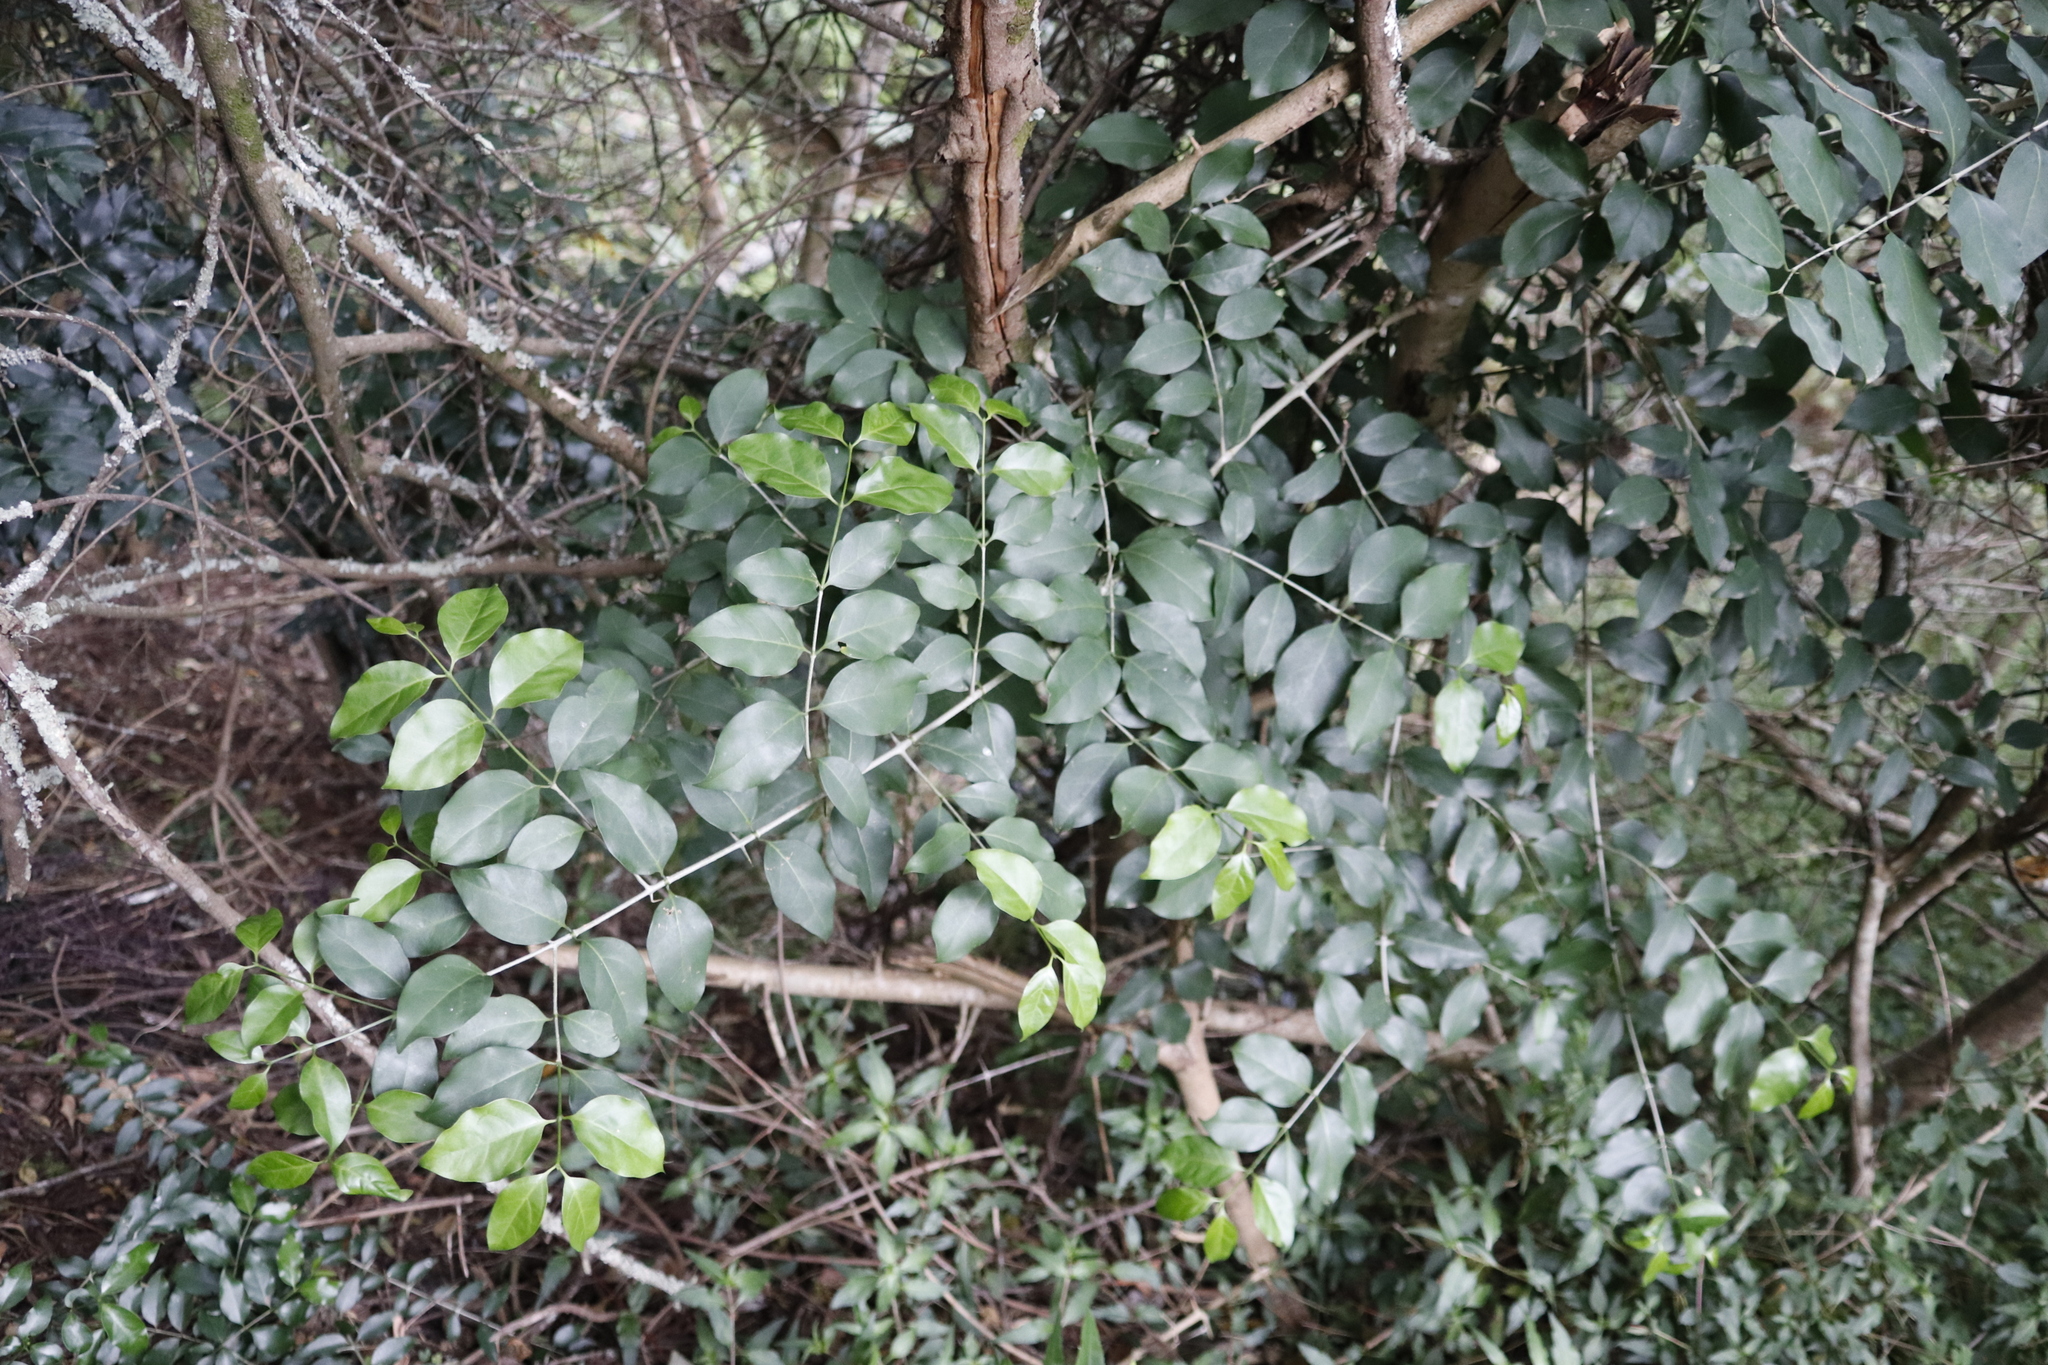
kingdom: Plantae
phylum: Tracheophyta
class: Magnoliopsida
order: Gentianales
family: Rubiaceae
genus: Canthium
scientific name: Canthium inerme
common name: Unarmed turkey-berry
